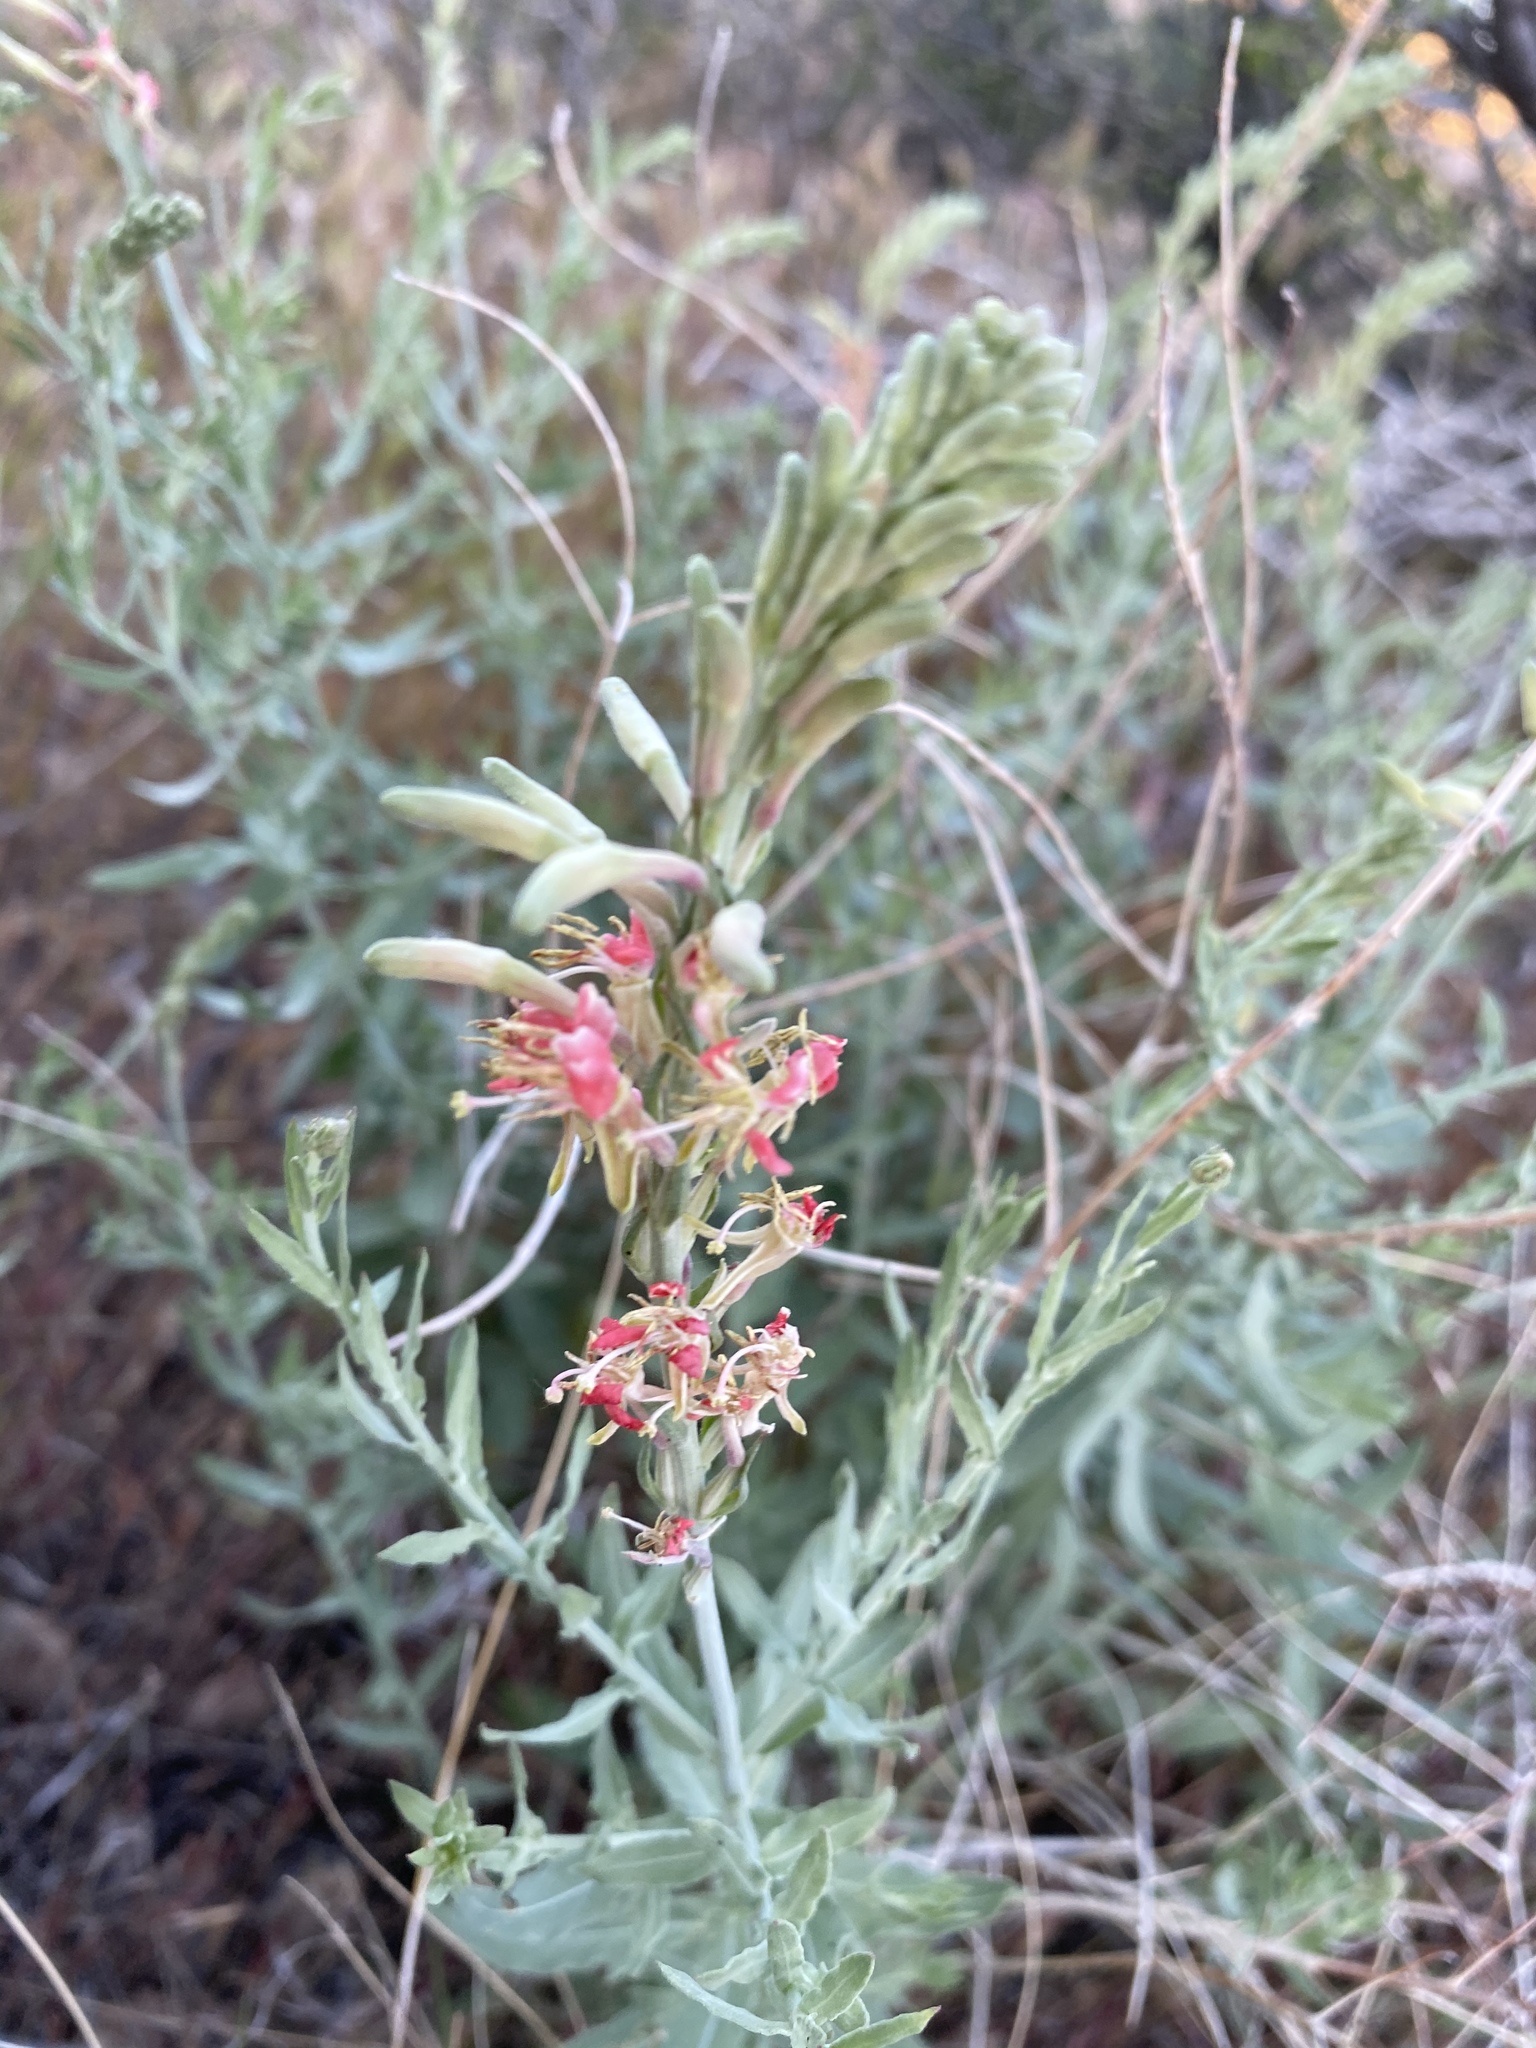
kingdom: Plantae
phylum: Tracheophyta
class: Magnoliopsida
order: Myrtales
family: Onagraceae
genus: Oenothera
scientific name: Oenothera suffrutescens
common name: Scarlet beeblossom
